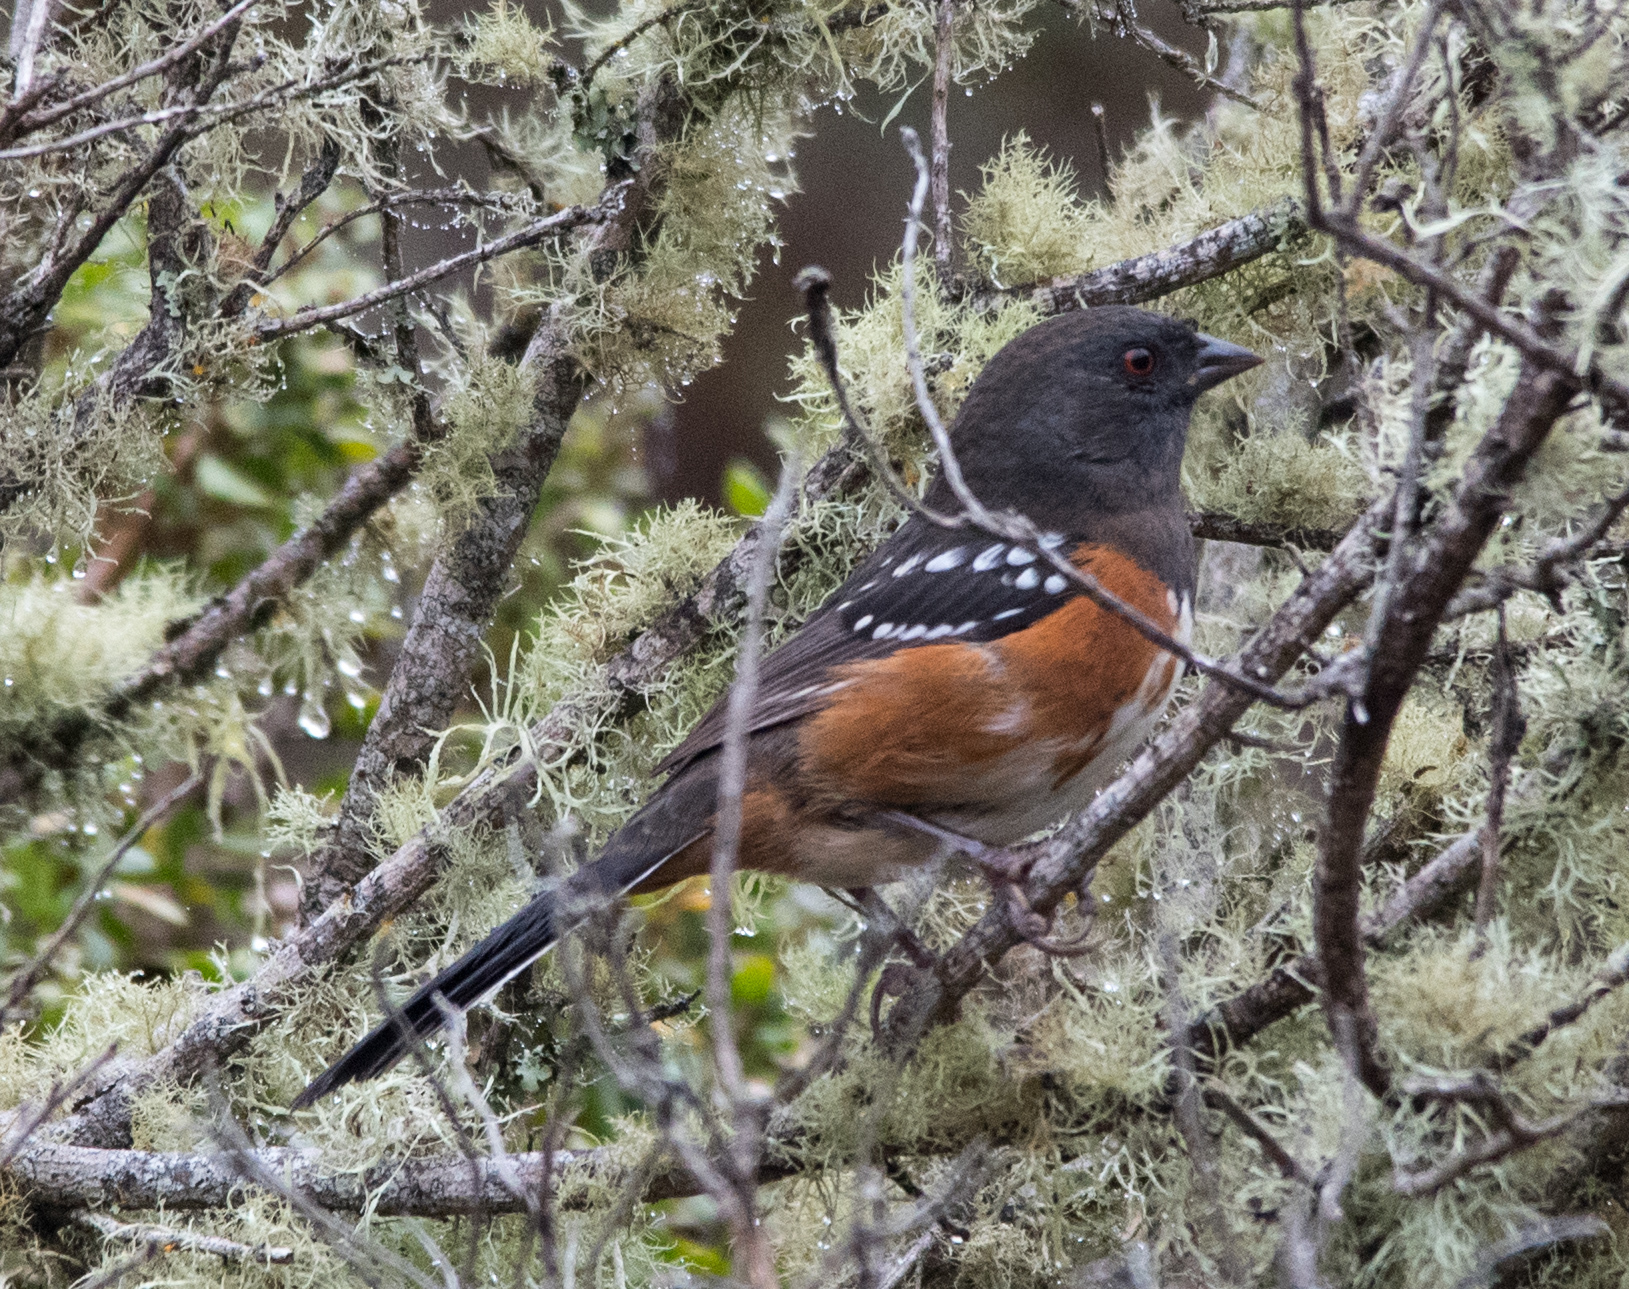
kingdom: Animalia
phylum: Chordata
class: Aves
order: Passeriformes
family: Passerellidae
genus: Pipilo
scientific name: Pipilo maculatus
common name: Spotted towhee
